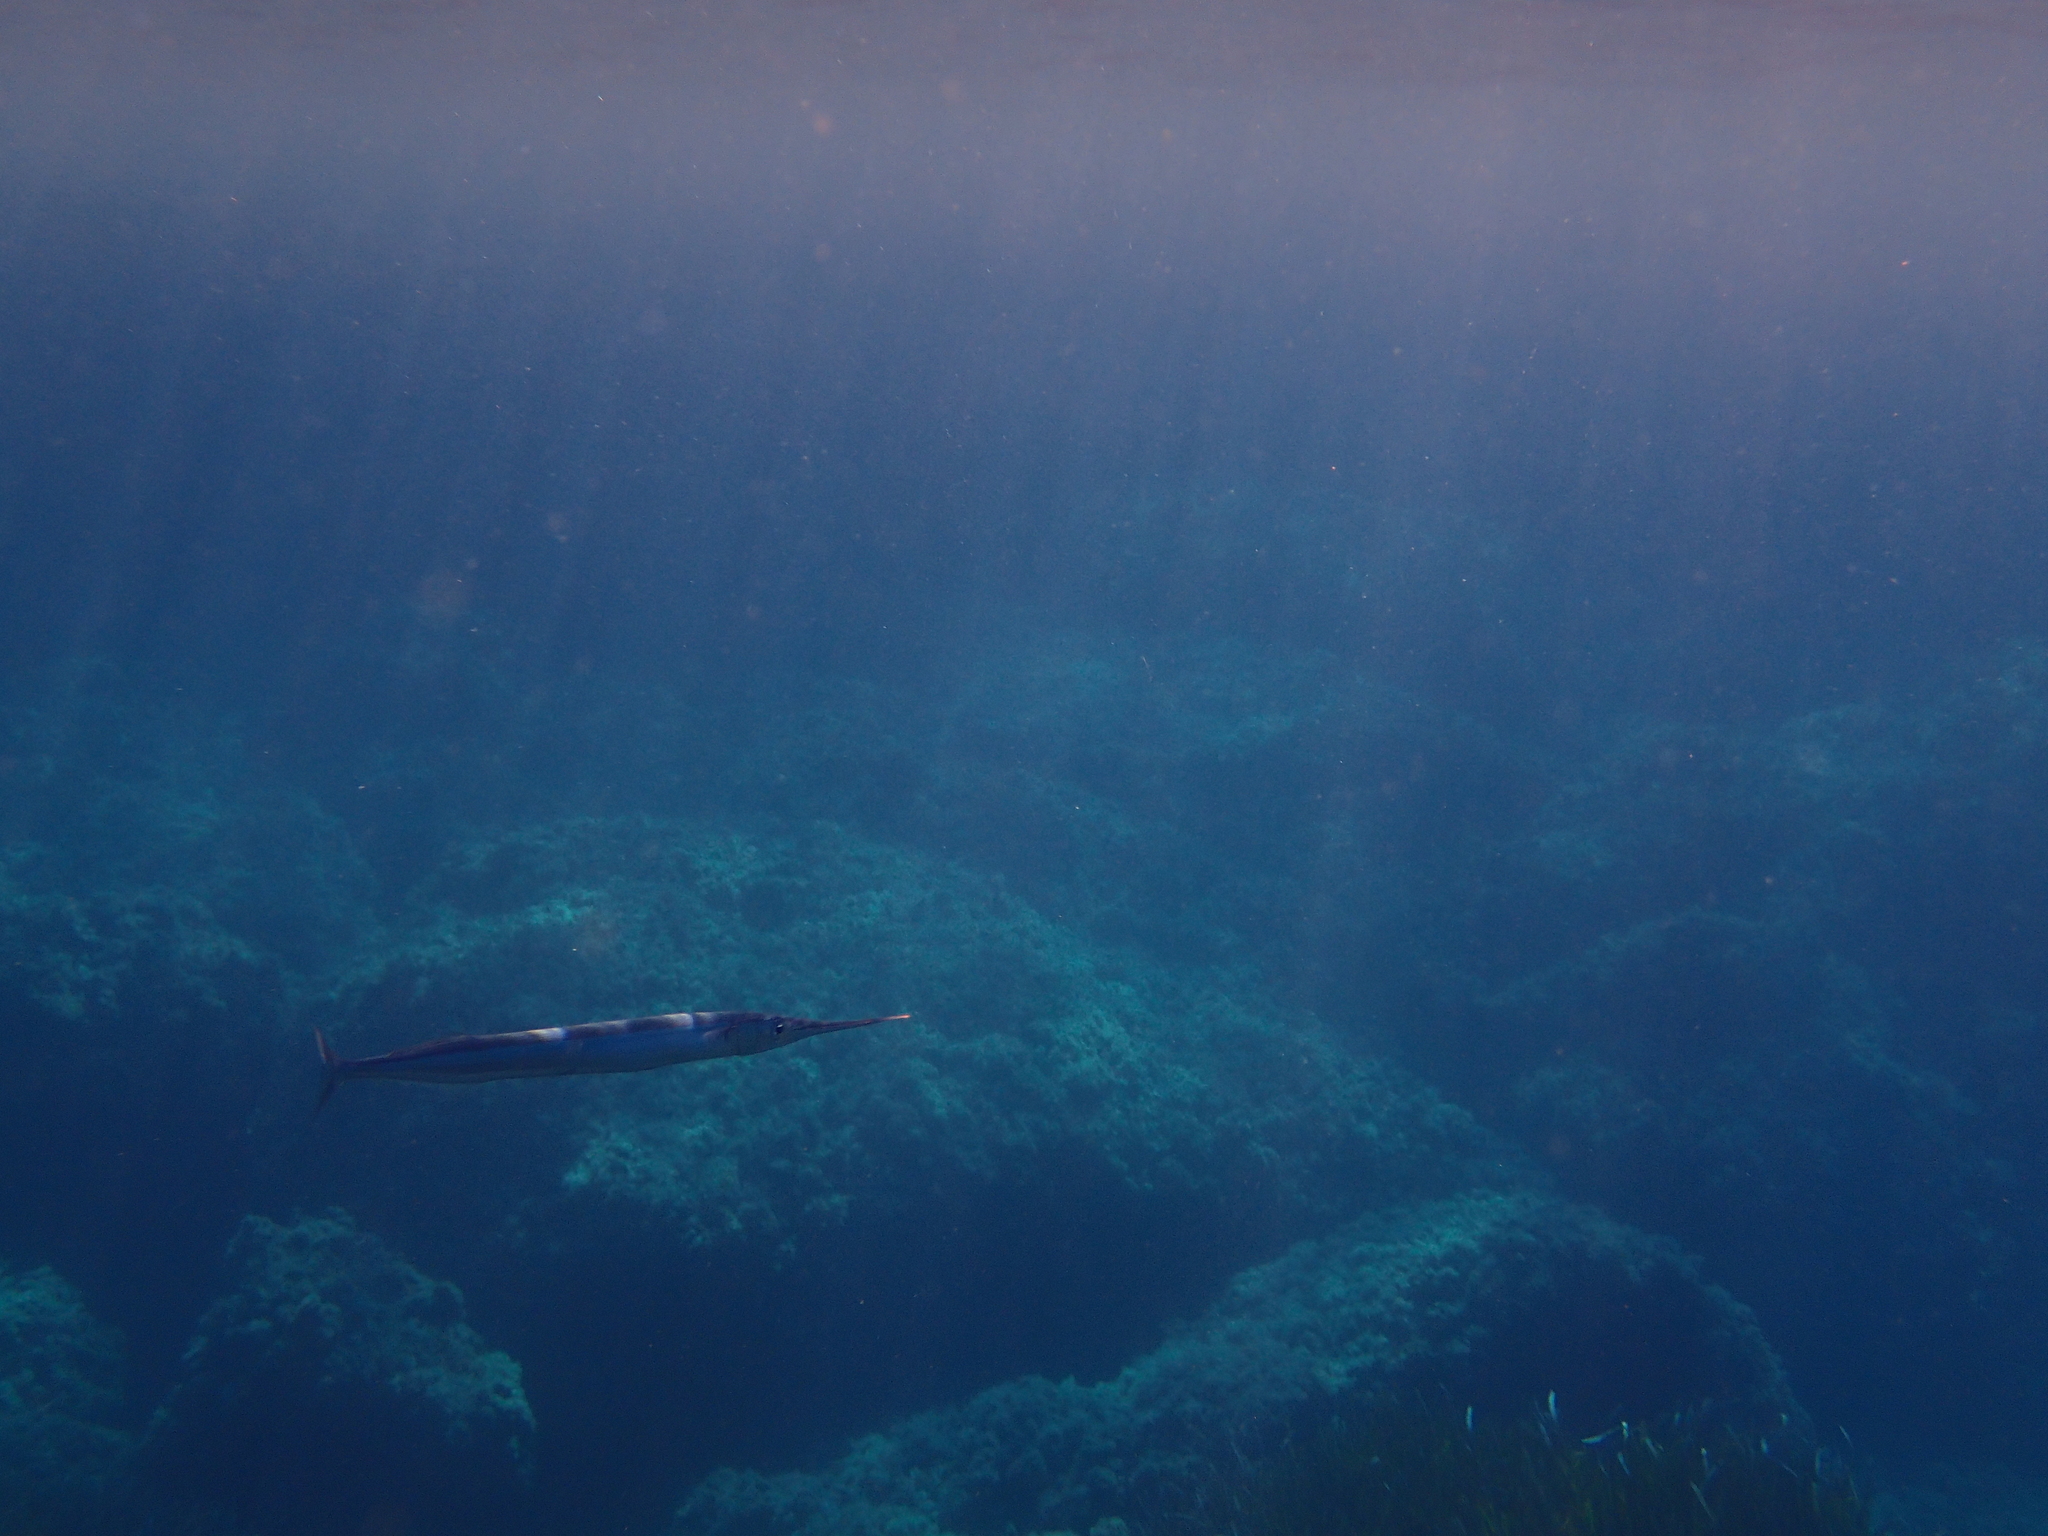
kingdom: Animalia
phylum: Chordata
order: Beloniformes
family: Belonidae
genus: Belone
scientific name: Belone belone
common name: Garfish
